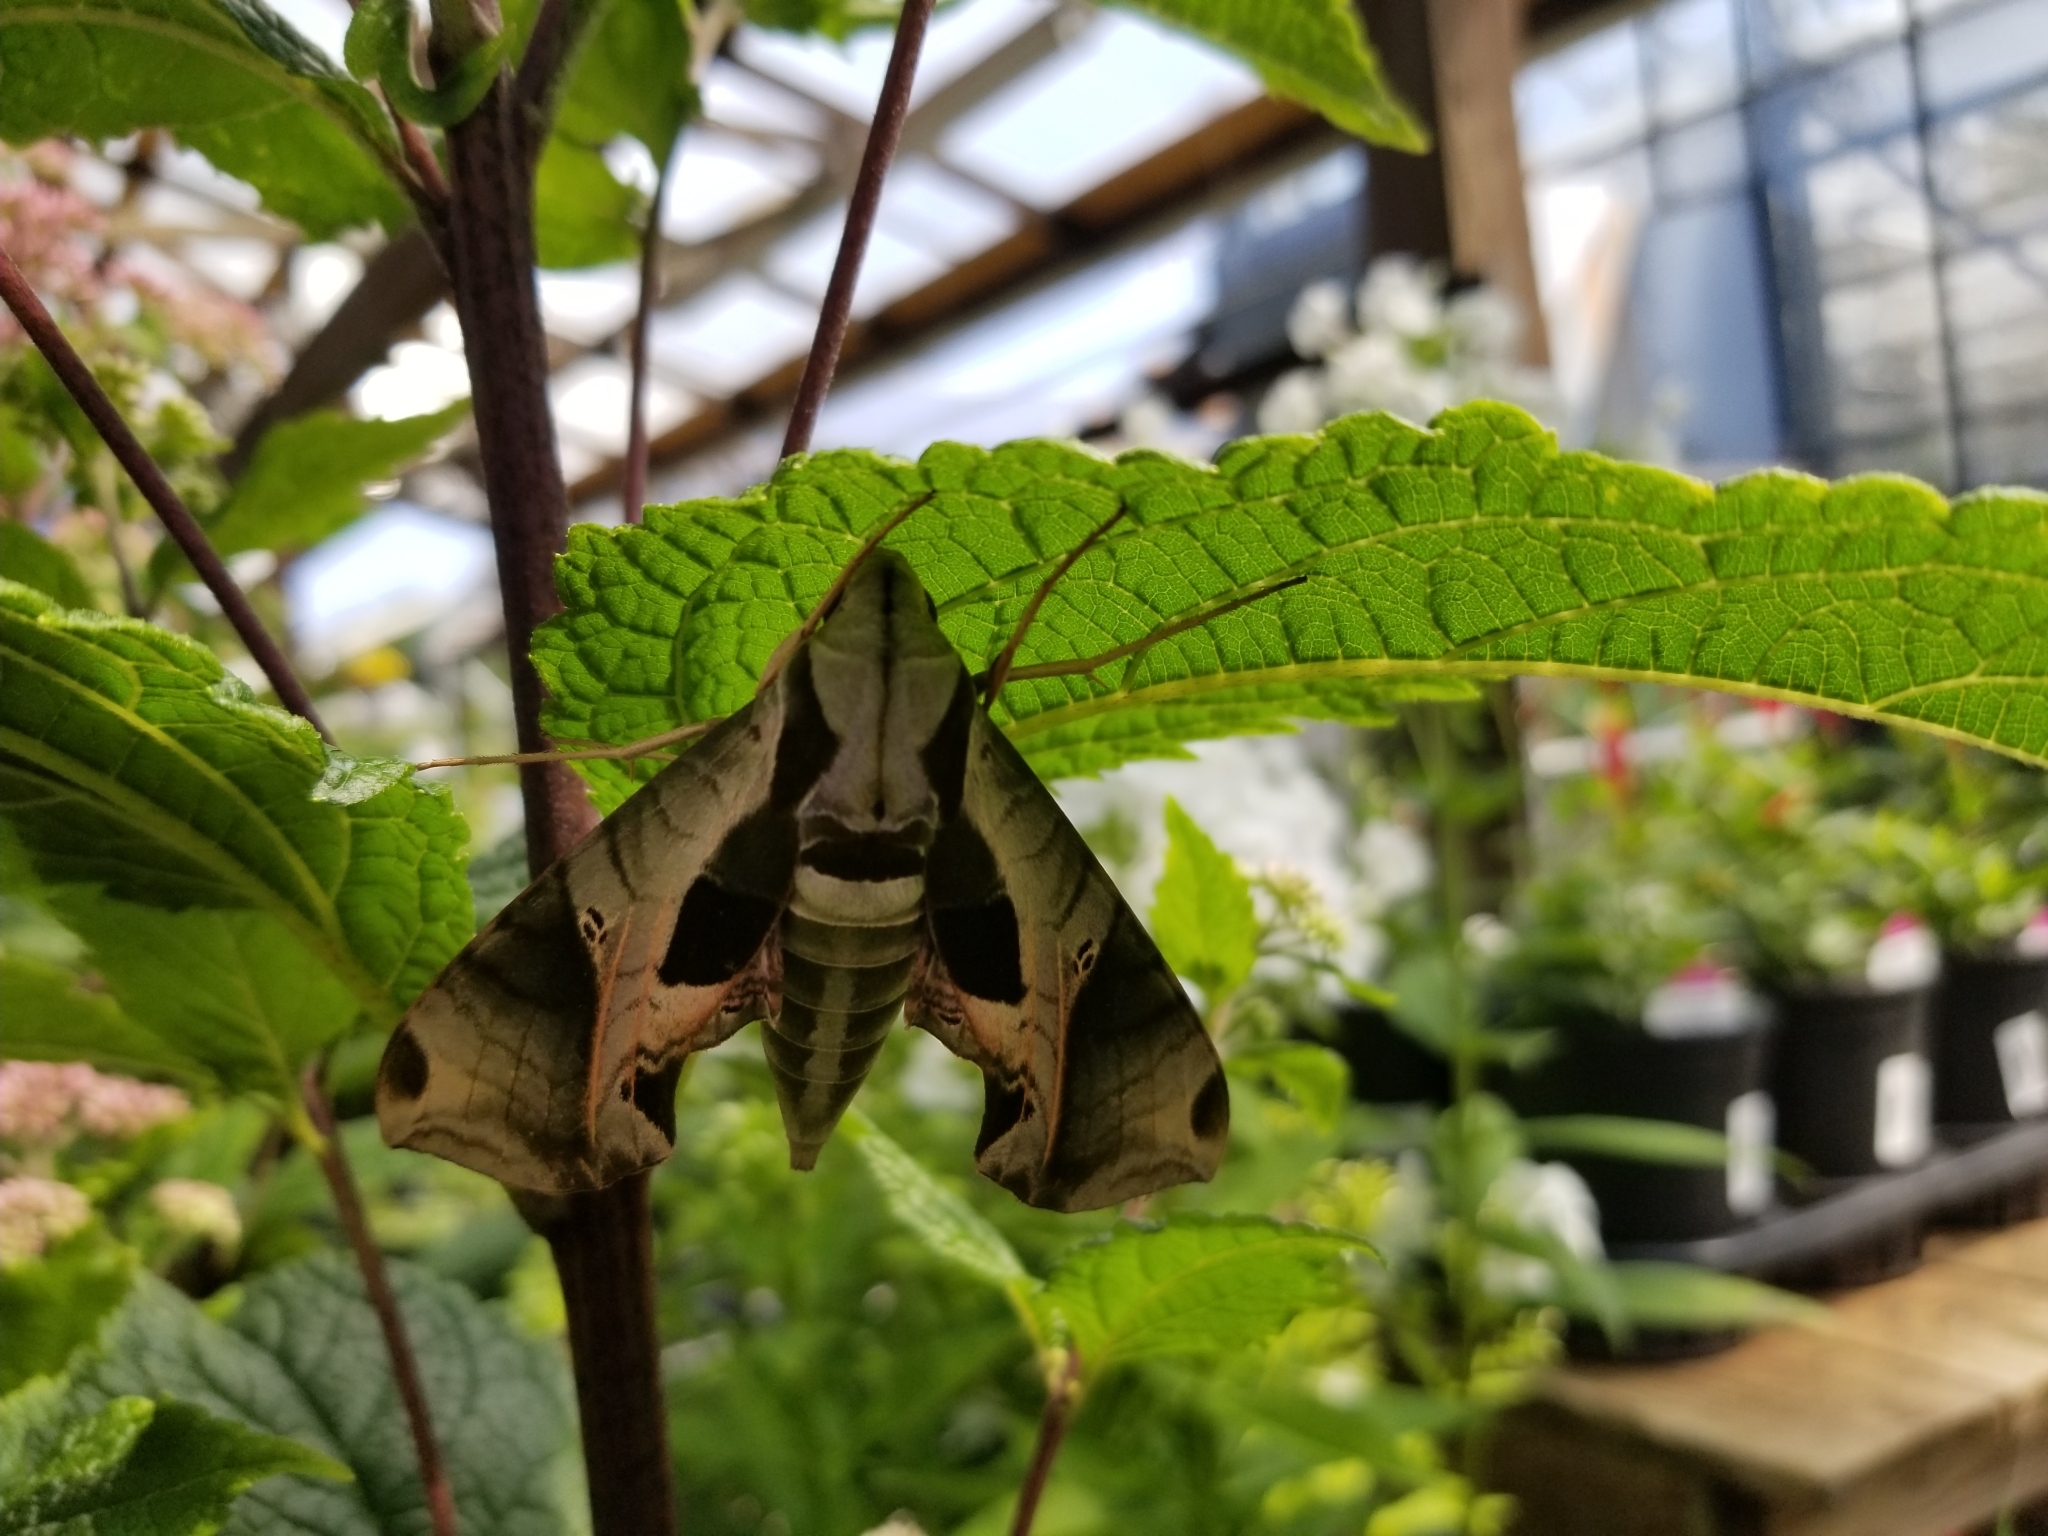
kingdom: Animalia
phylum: Arthropoda
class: Insecta
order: Lepidoptera
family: Sphingidae
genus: Eumorpha
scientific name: Eumorpha pandorus
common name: Pandora sphinx
